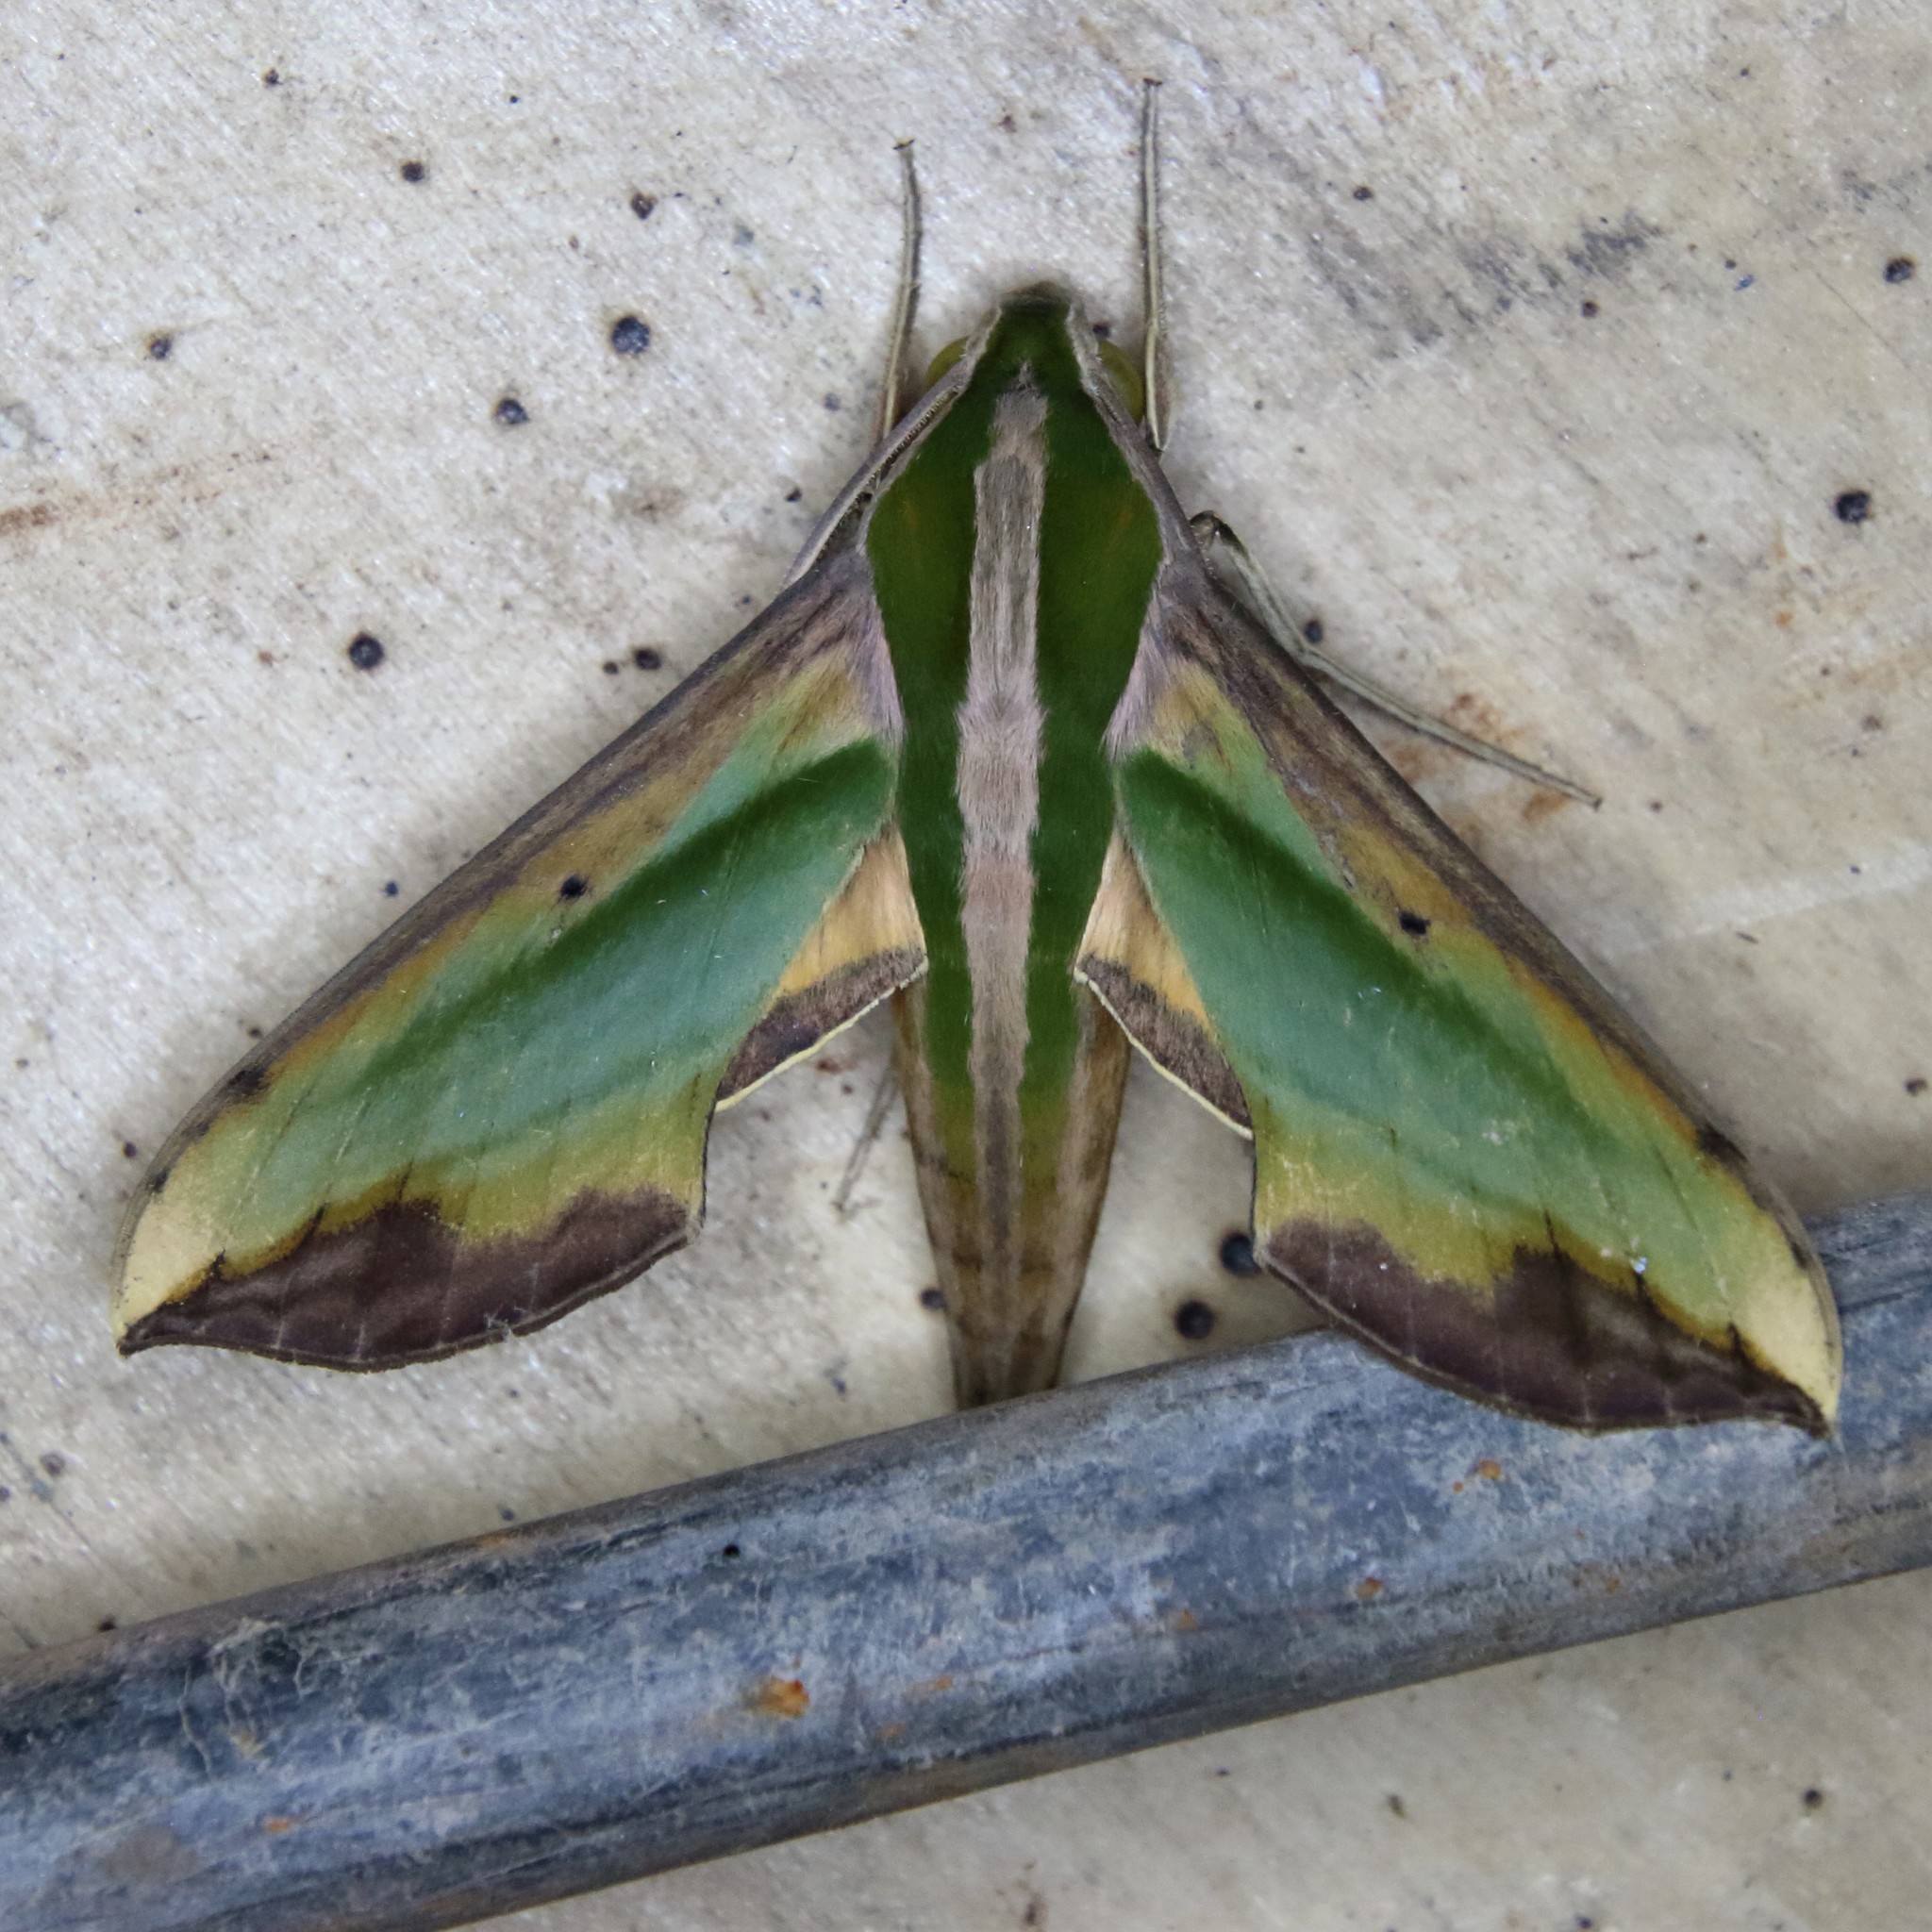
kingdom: Animalia
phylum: Arthropoda
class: Insecta
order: Lepidoptera
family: Sphingidae
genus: Pergesa
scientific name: Pergesa acteus
